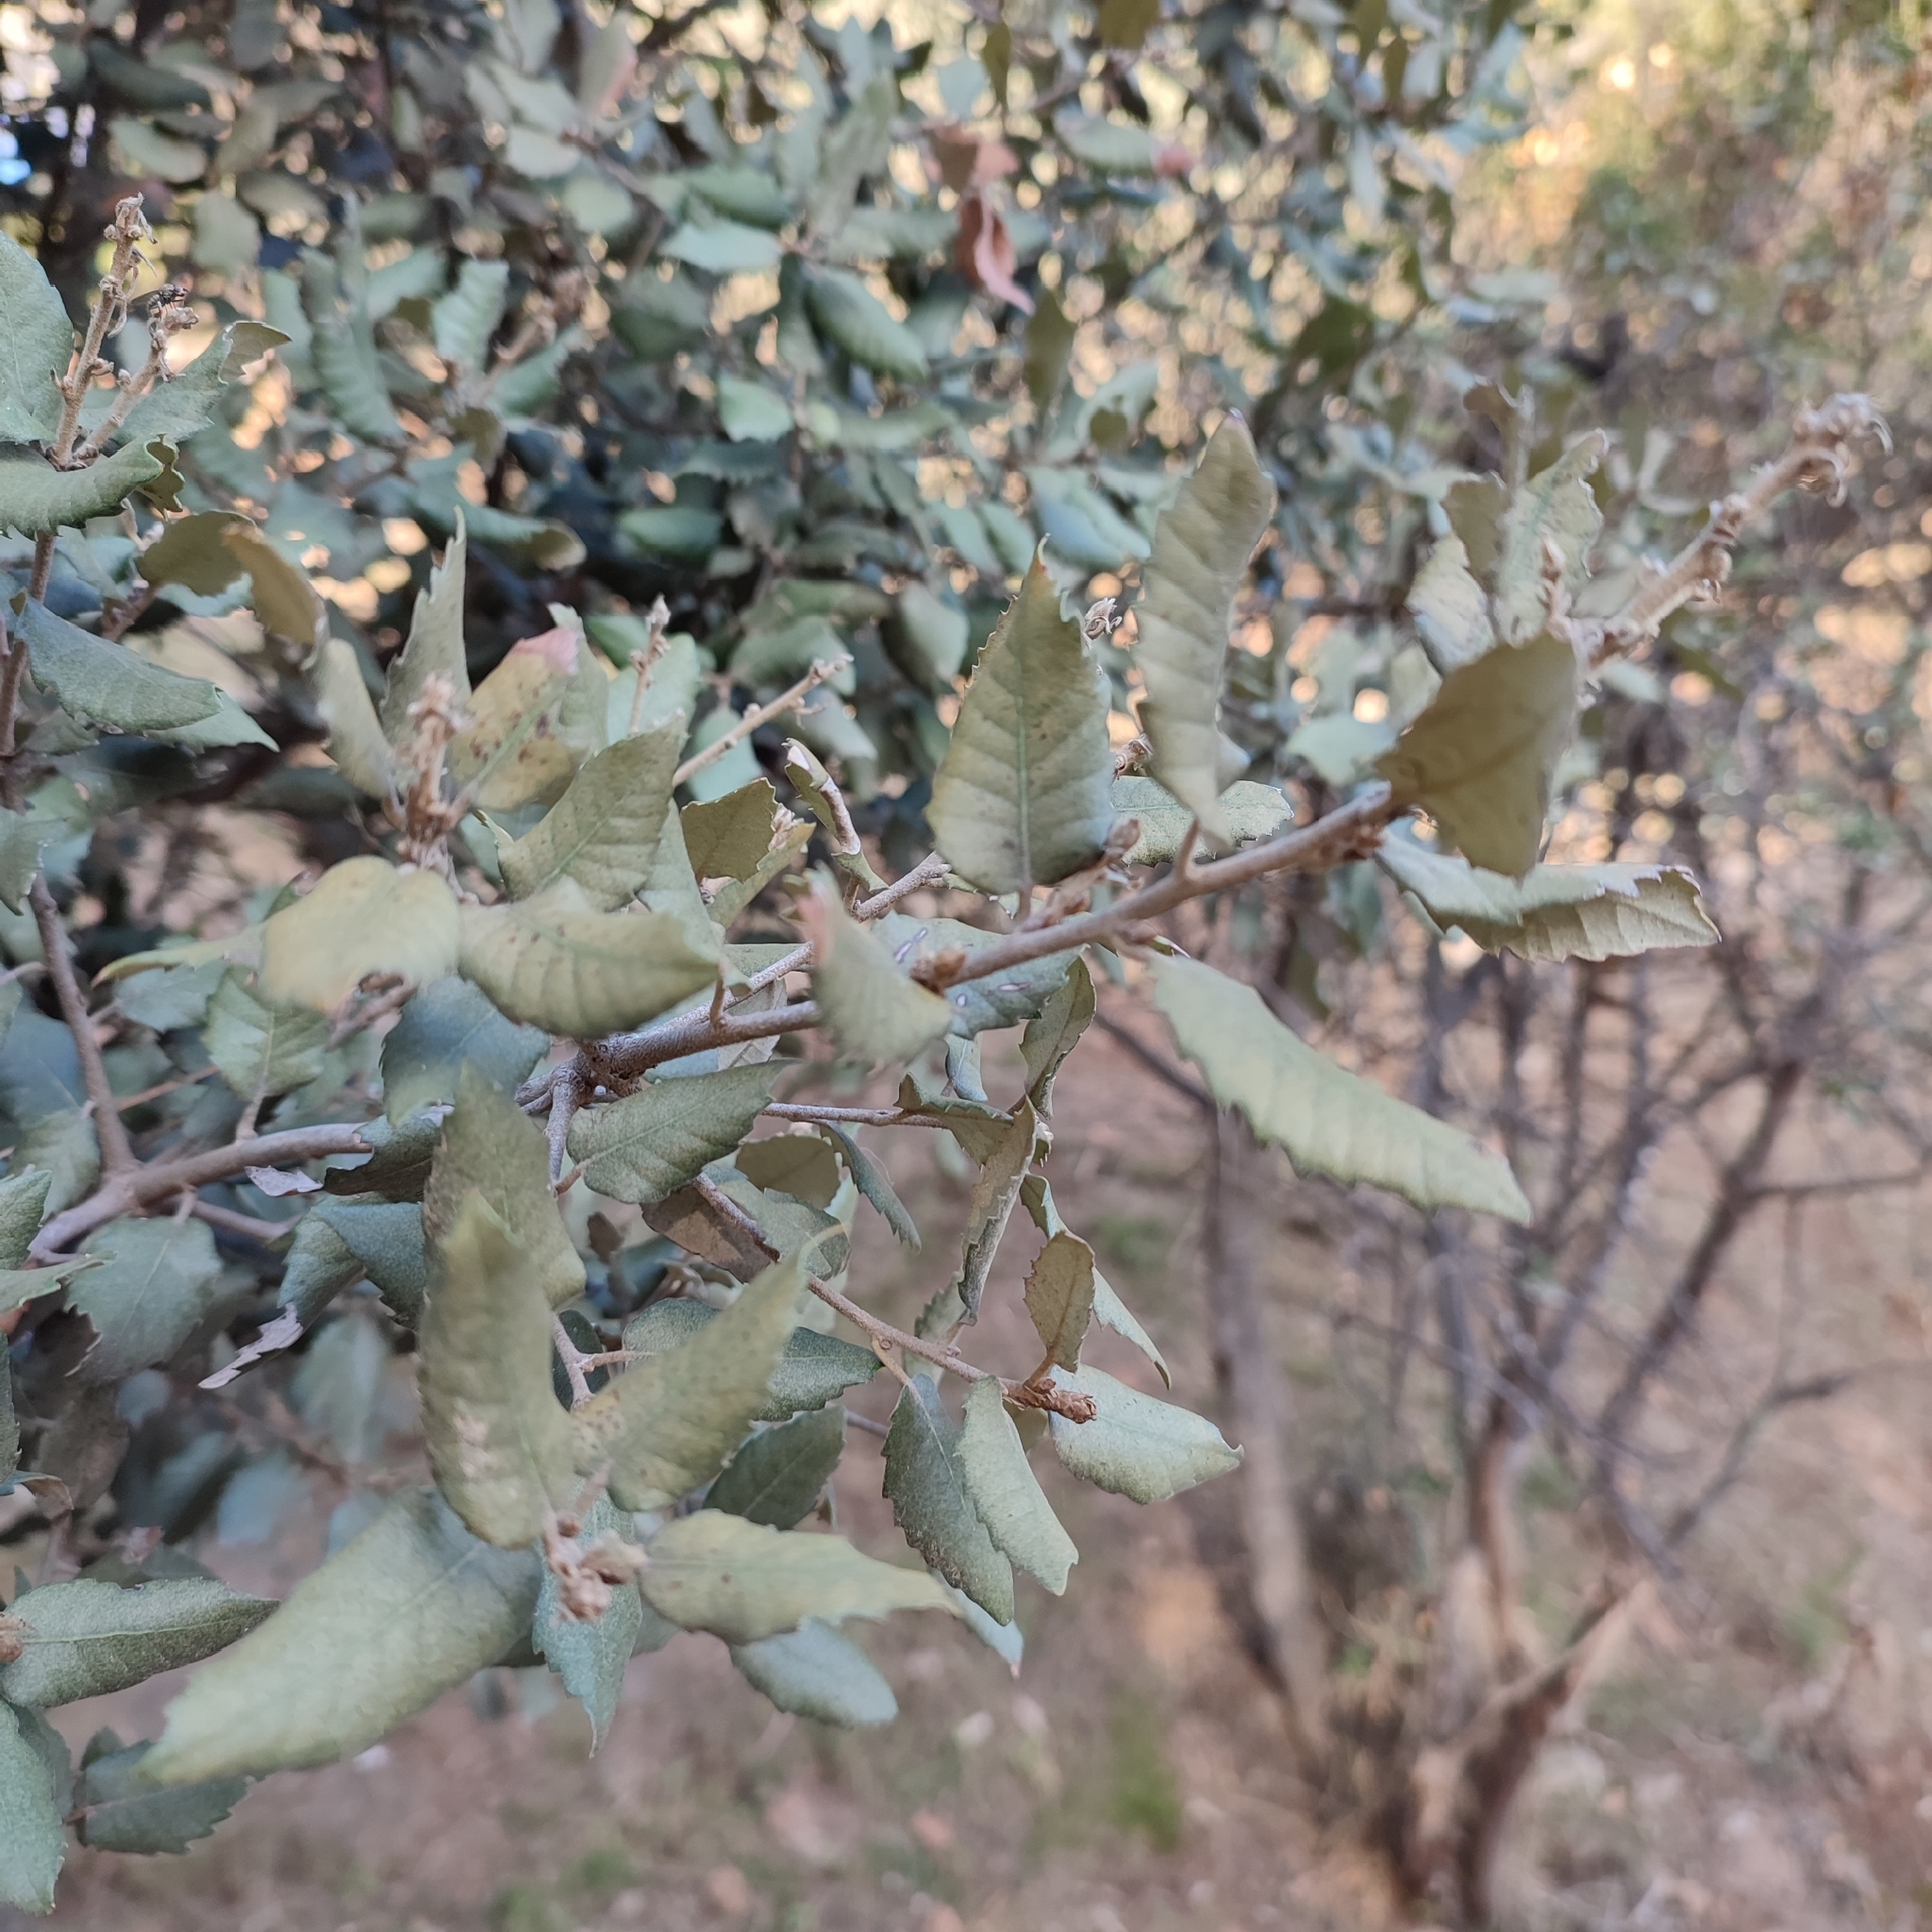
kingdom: Plantae
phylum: Tracheophyta
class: Magnoliopsida
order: Fagales
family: Fagaceae
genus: Quercus
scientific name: Quercus ilex
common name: Evergreen oak
